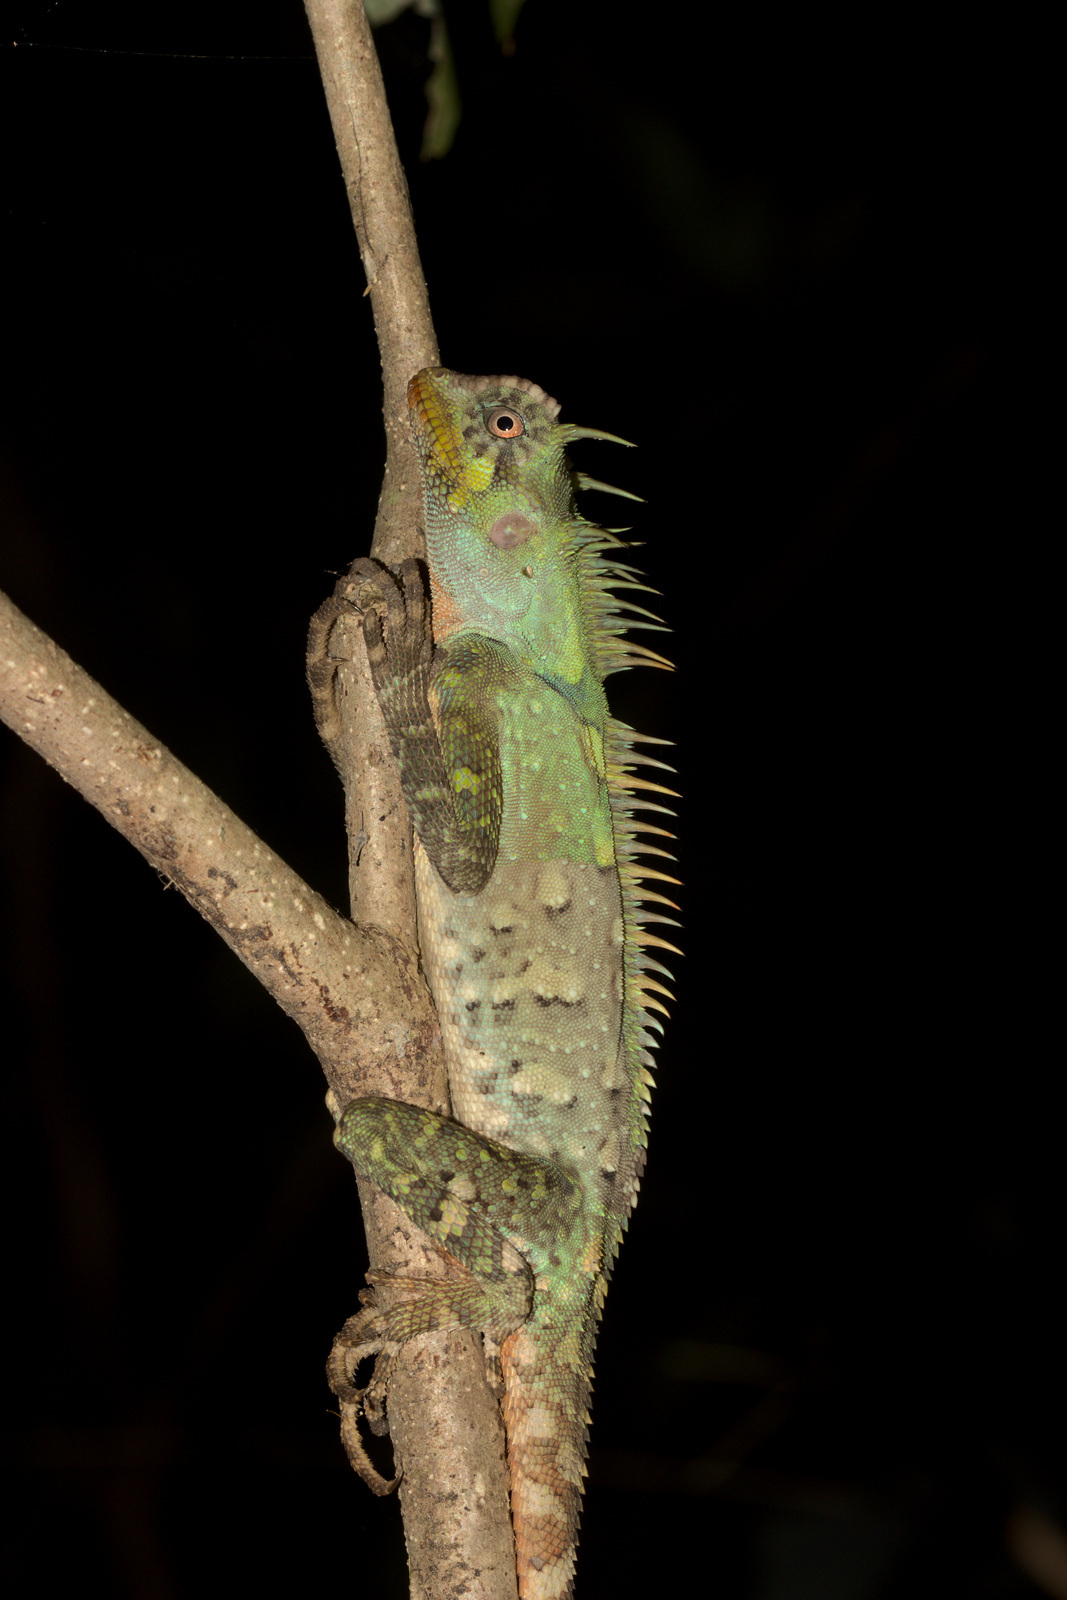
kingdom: Animalia
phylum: Chordata
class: Squamata
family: Agamidae
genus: Acanthosaura
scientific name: Acanthosaura armata
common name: Armored pricklenape
